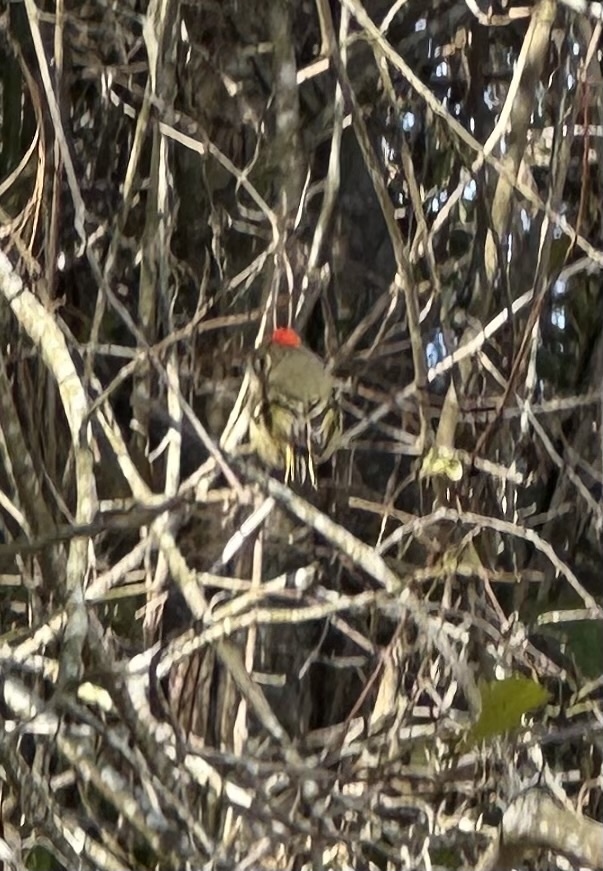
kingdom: Animalia
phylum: Chordata
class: Aves
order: Passeriformes
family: Regulidae
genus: Regulus
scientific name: Regulus calendula
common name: Ruby-crowned kinglet
